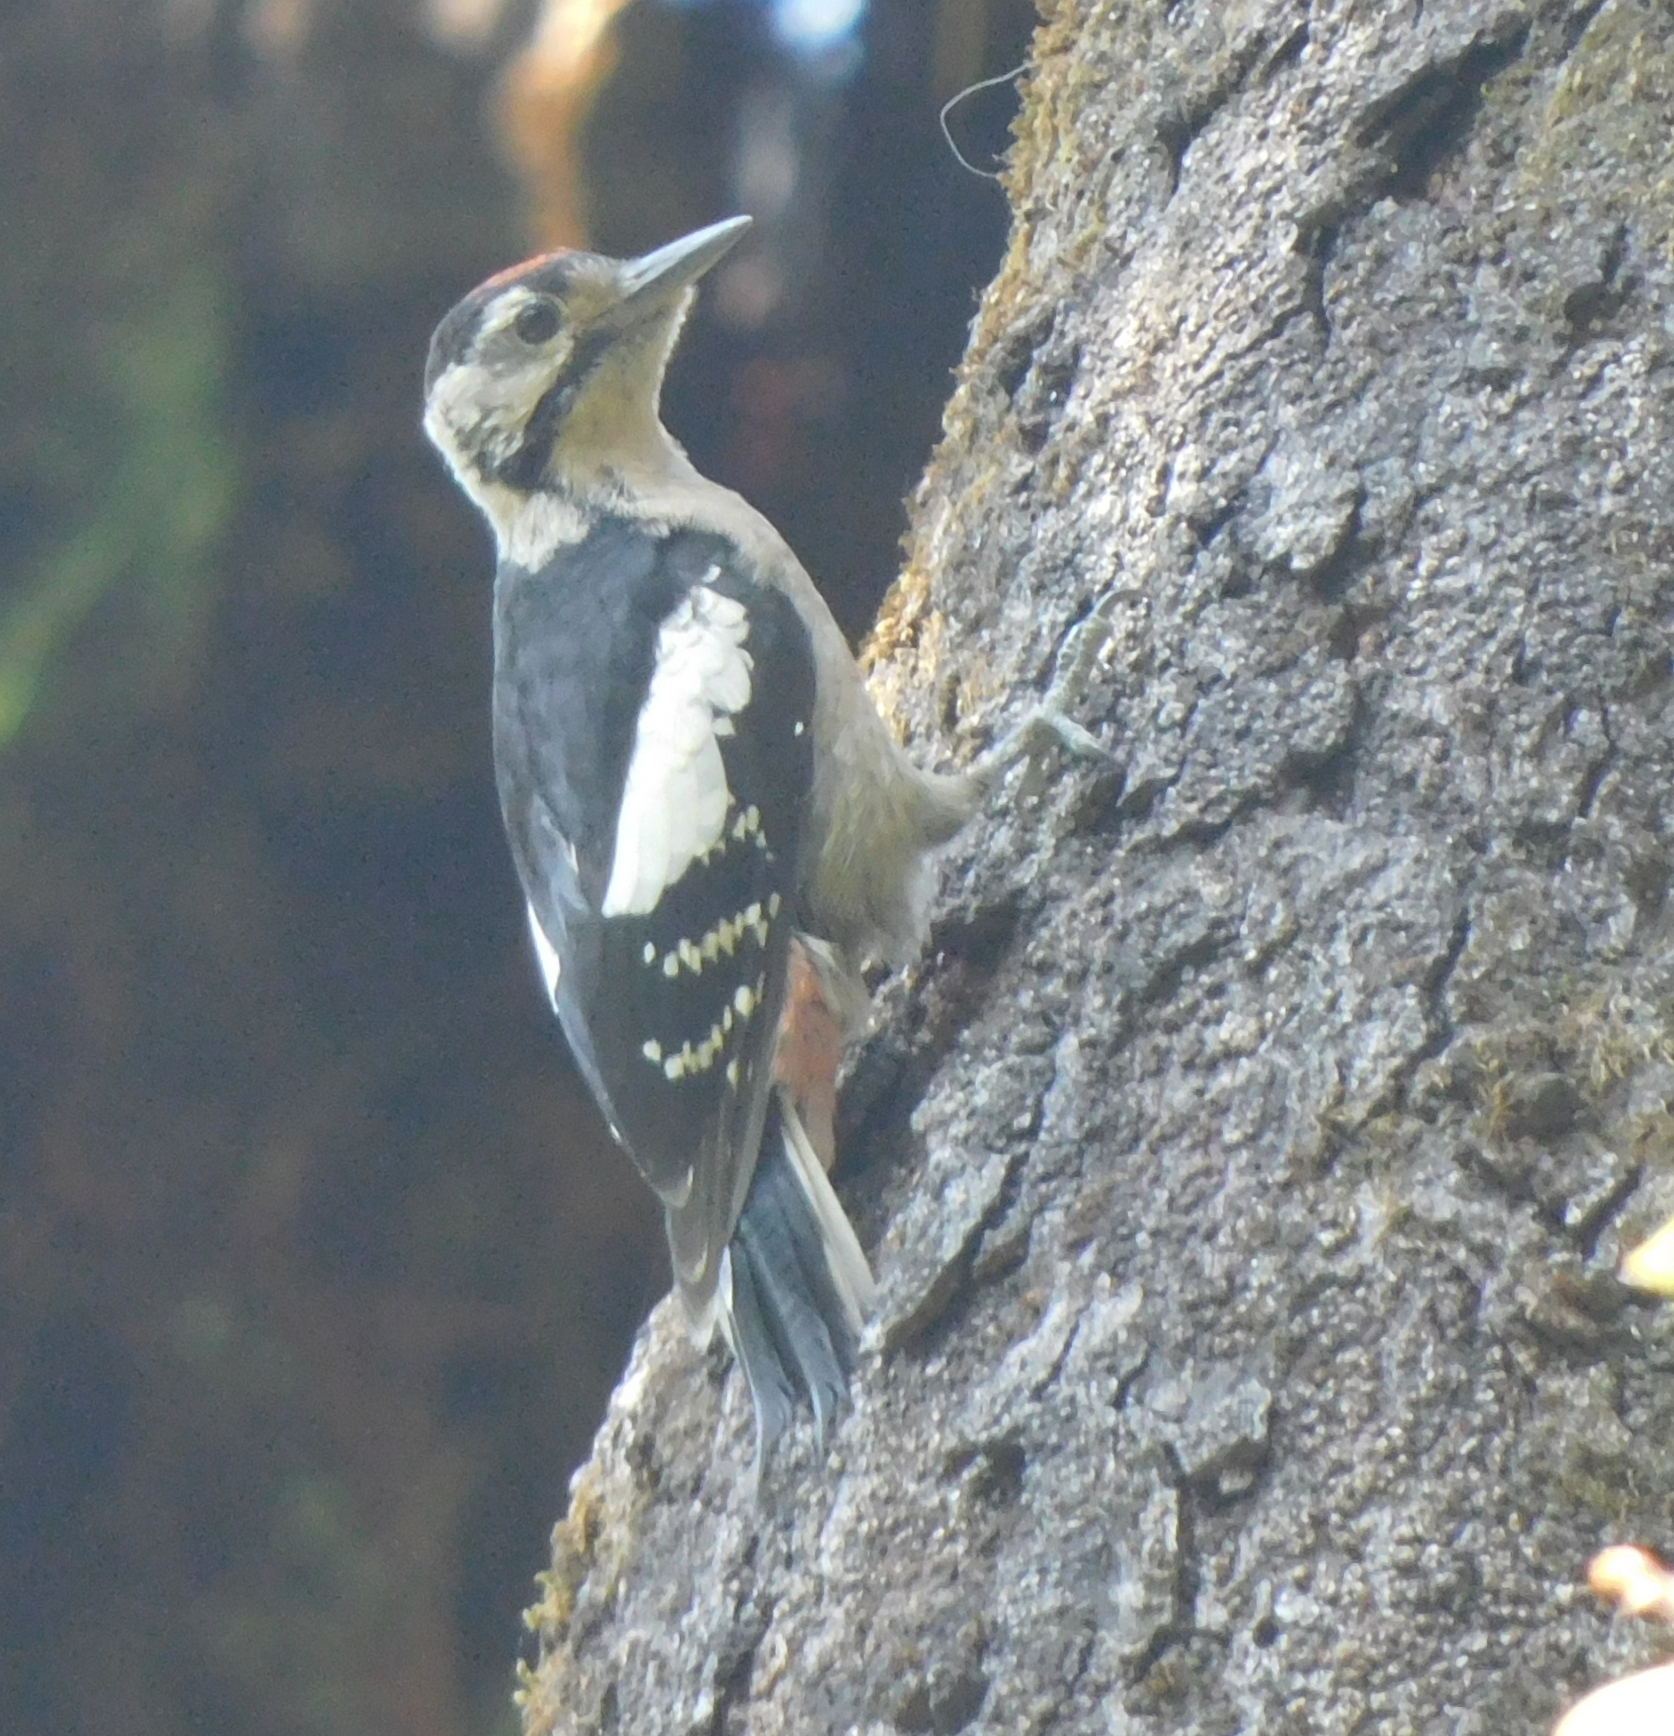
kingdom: Animalia
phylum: Chordata
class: Aves
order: Piciformes
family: Picidae
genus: Dendrocopos
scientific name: Dendrocopos himalayensis
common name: Himalayan woodpecker
